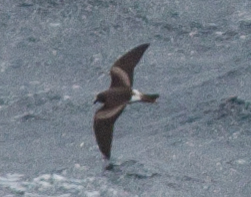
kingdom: Animalia
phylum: Chordata
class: Aves
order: Procellariiformes
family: Hydrobatidae
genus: Oceanodroma
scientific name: Oceanodroma leucorhoa
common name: Leach's storm-petrel
